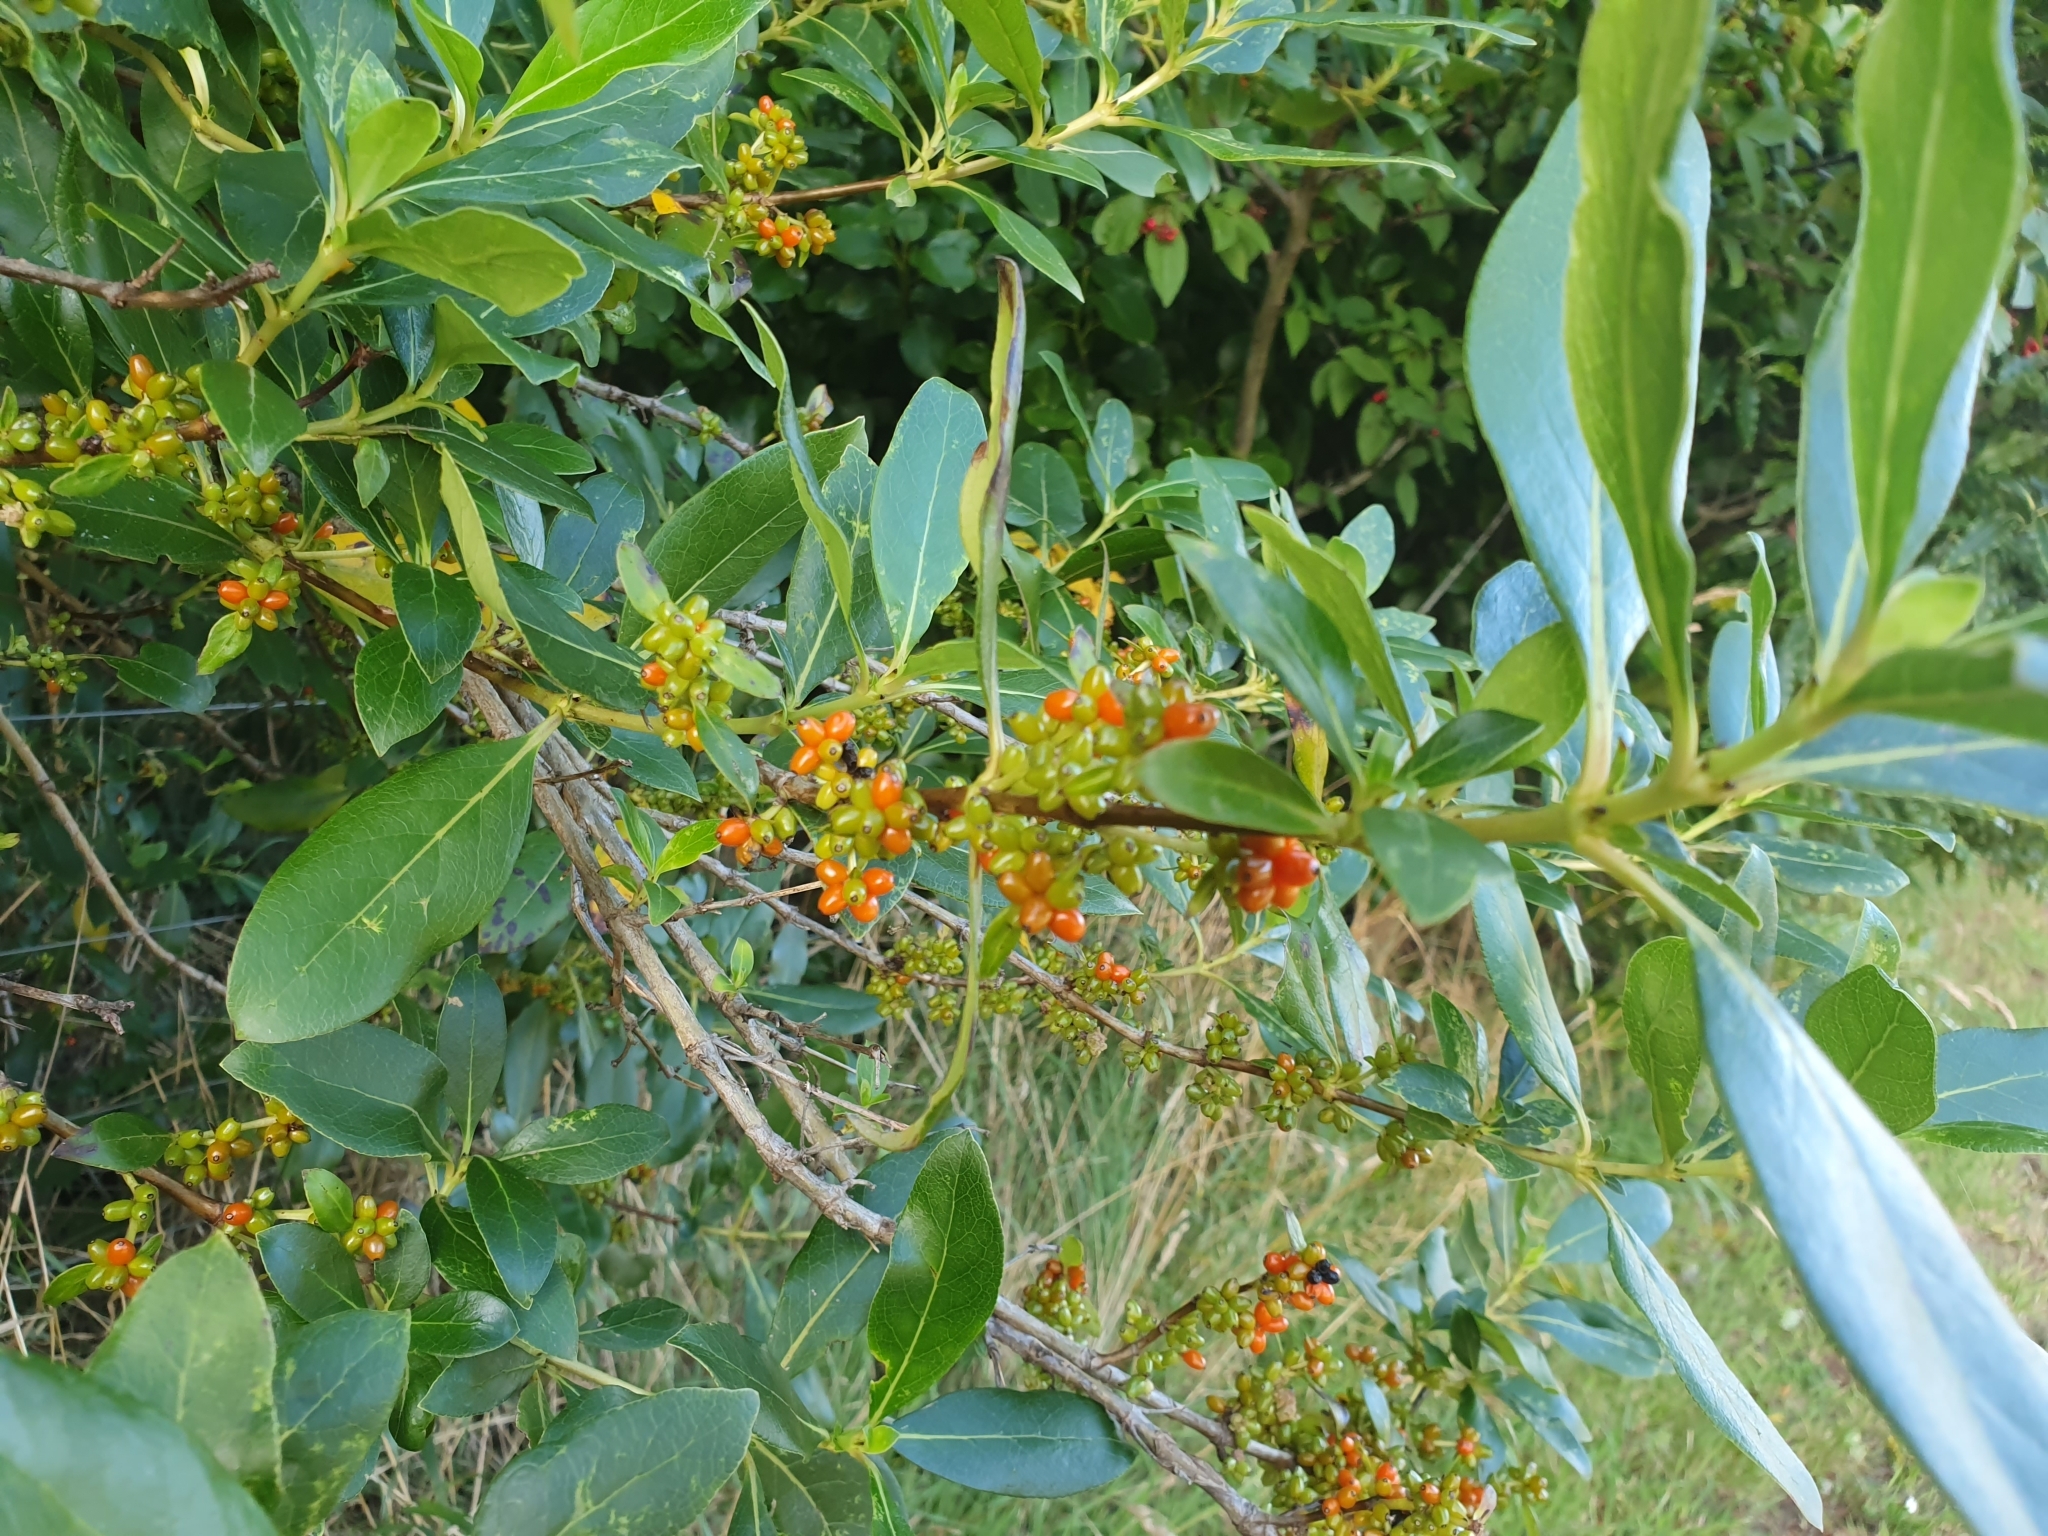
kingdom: Plantae
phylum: Tracheophyta
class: Magnoliopsida
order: Gentianales
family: Rubiaceae
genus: Coprosma
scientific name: Coprosma robusta
